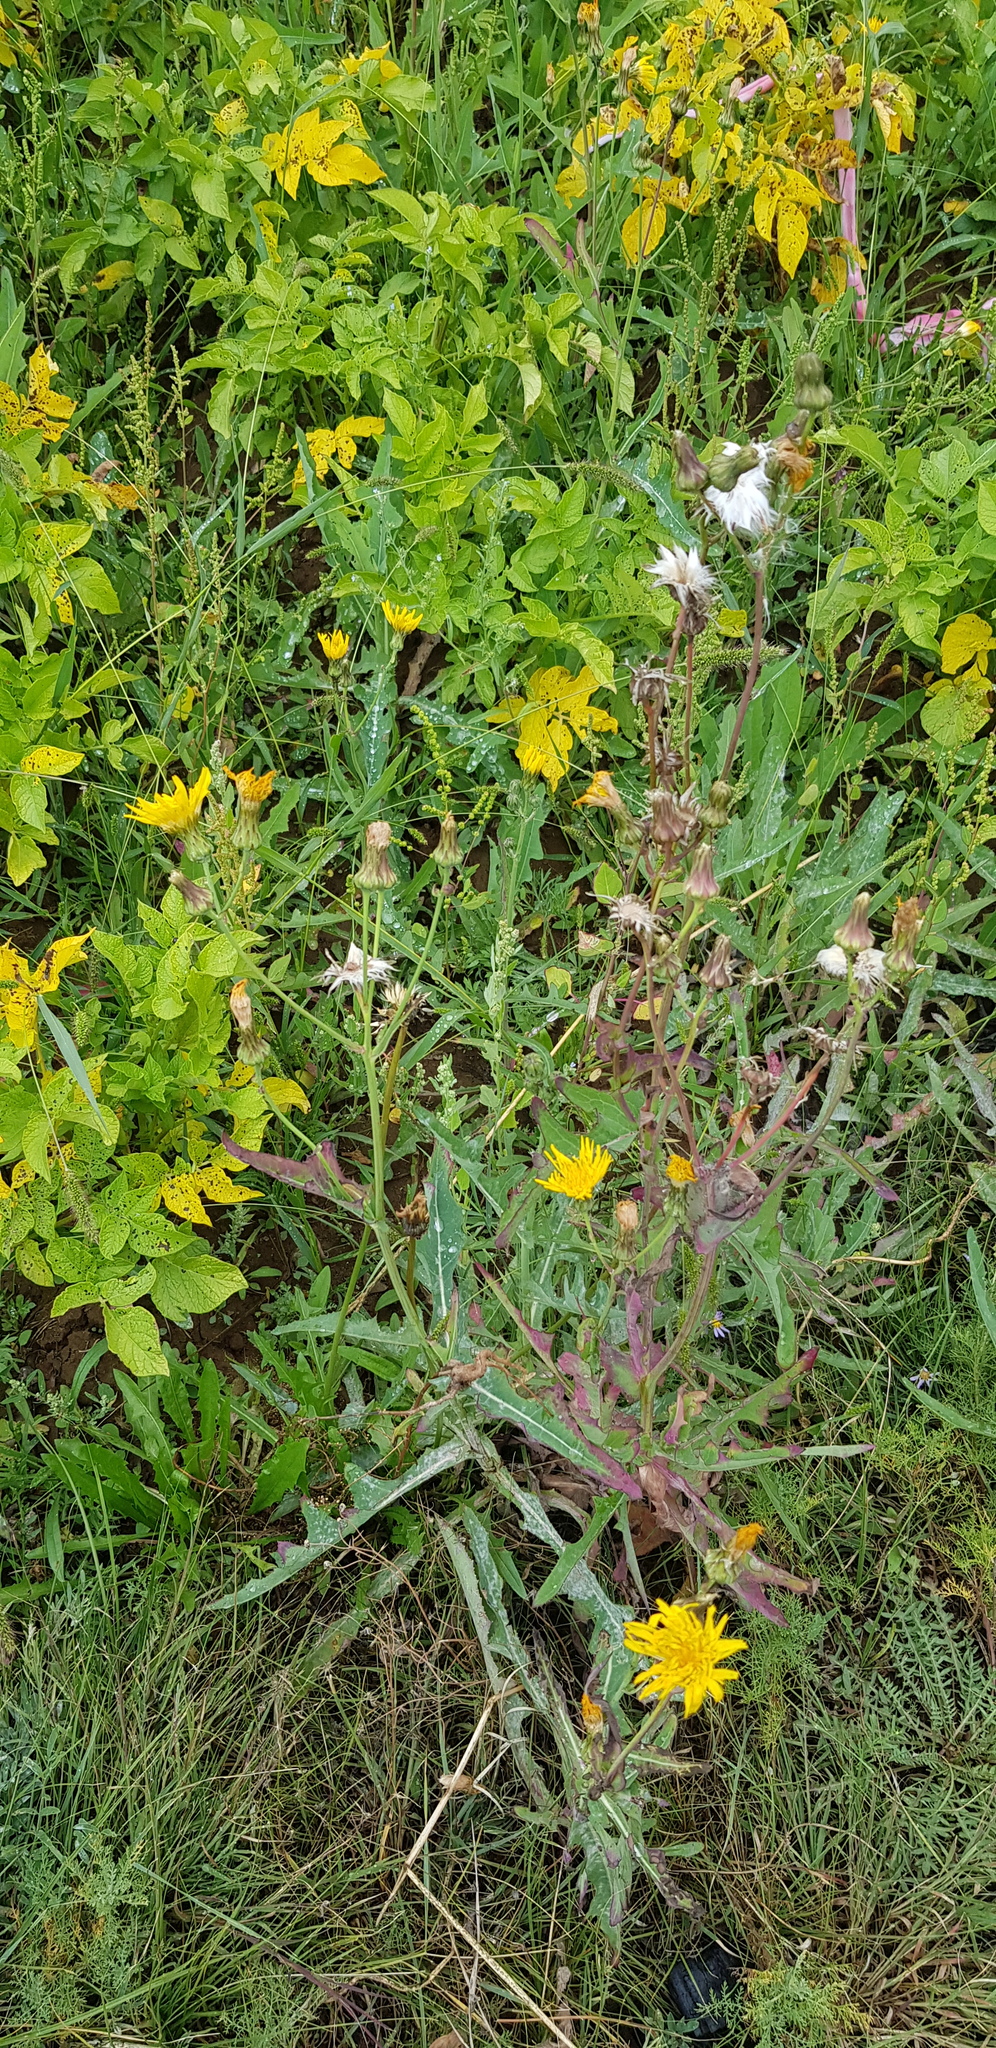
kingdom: Plantae
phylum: Tracheophyta
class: Magnoliopsida
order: Asterales
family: Asteraceae
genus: Sonchus
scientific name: Sonchus arvensis
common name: Perennial sow-thistle
